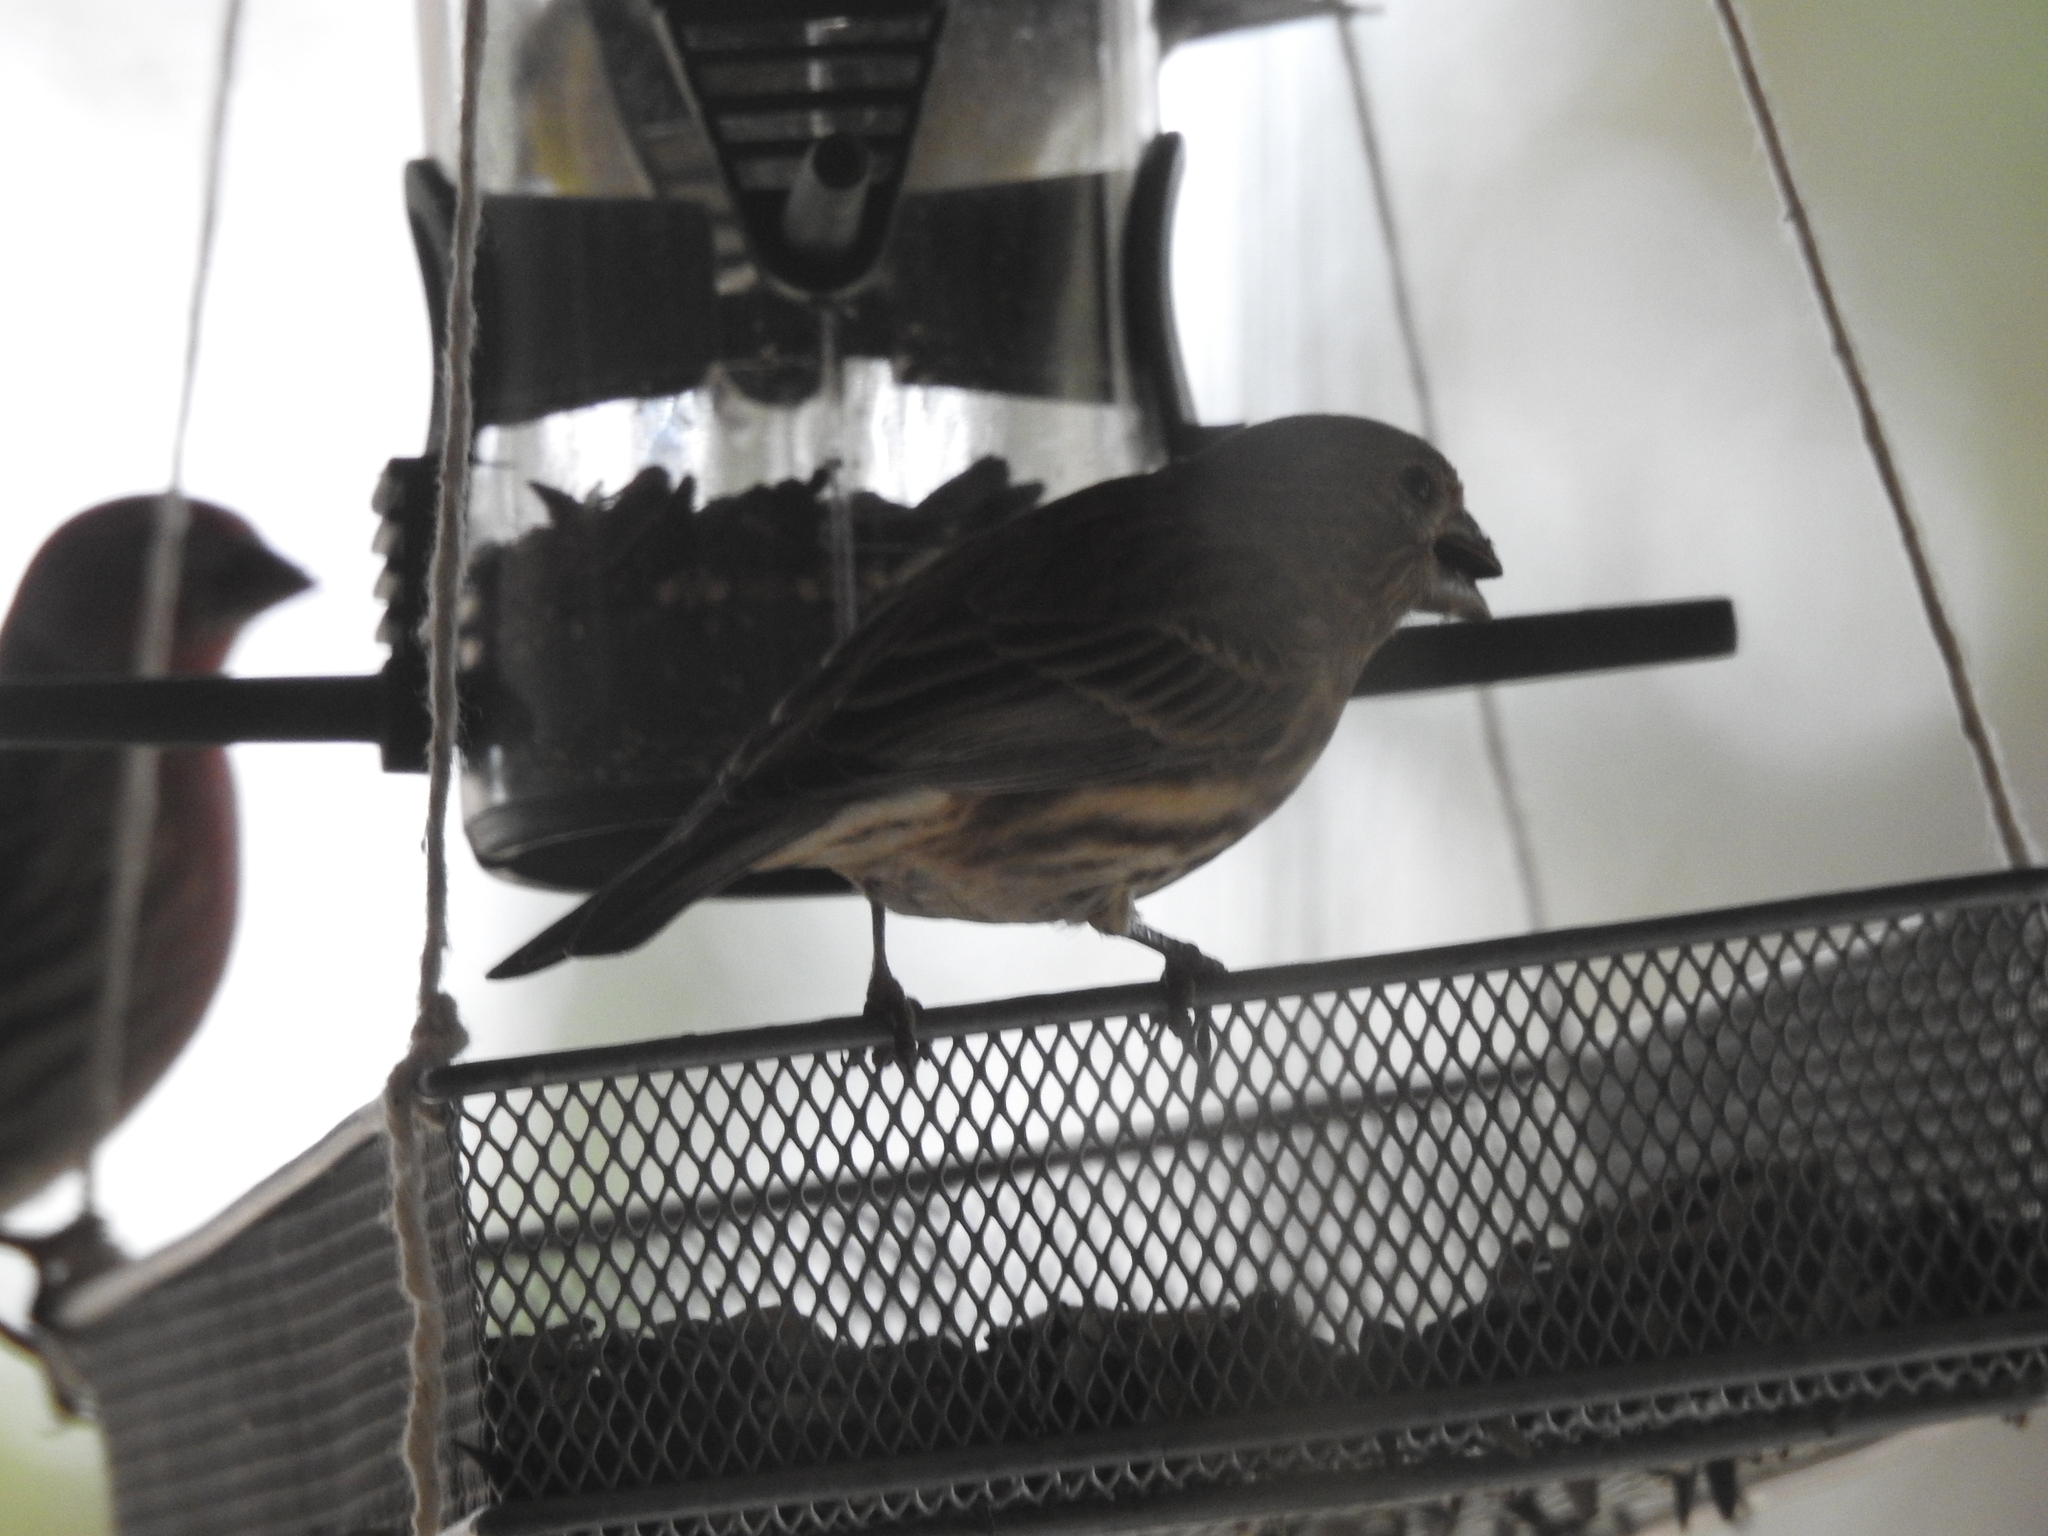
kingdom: Animalia
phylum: Chordata
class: Aves
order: Passeriformes
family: Fringillidae
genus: Haemorhous
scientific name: Haemorhous mexicanus
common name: House finch
